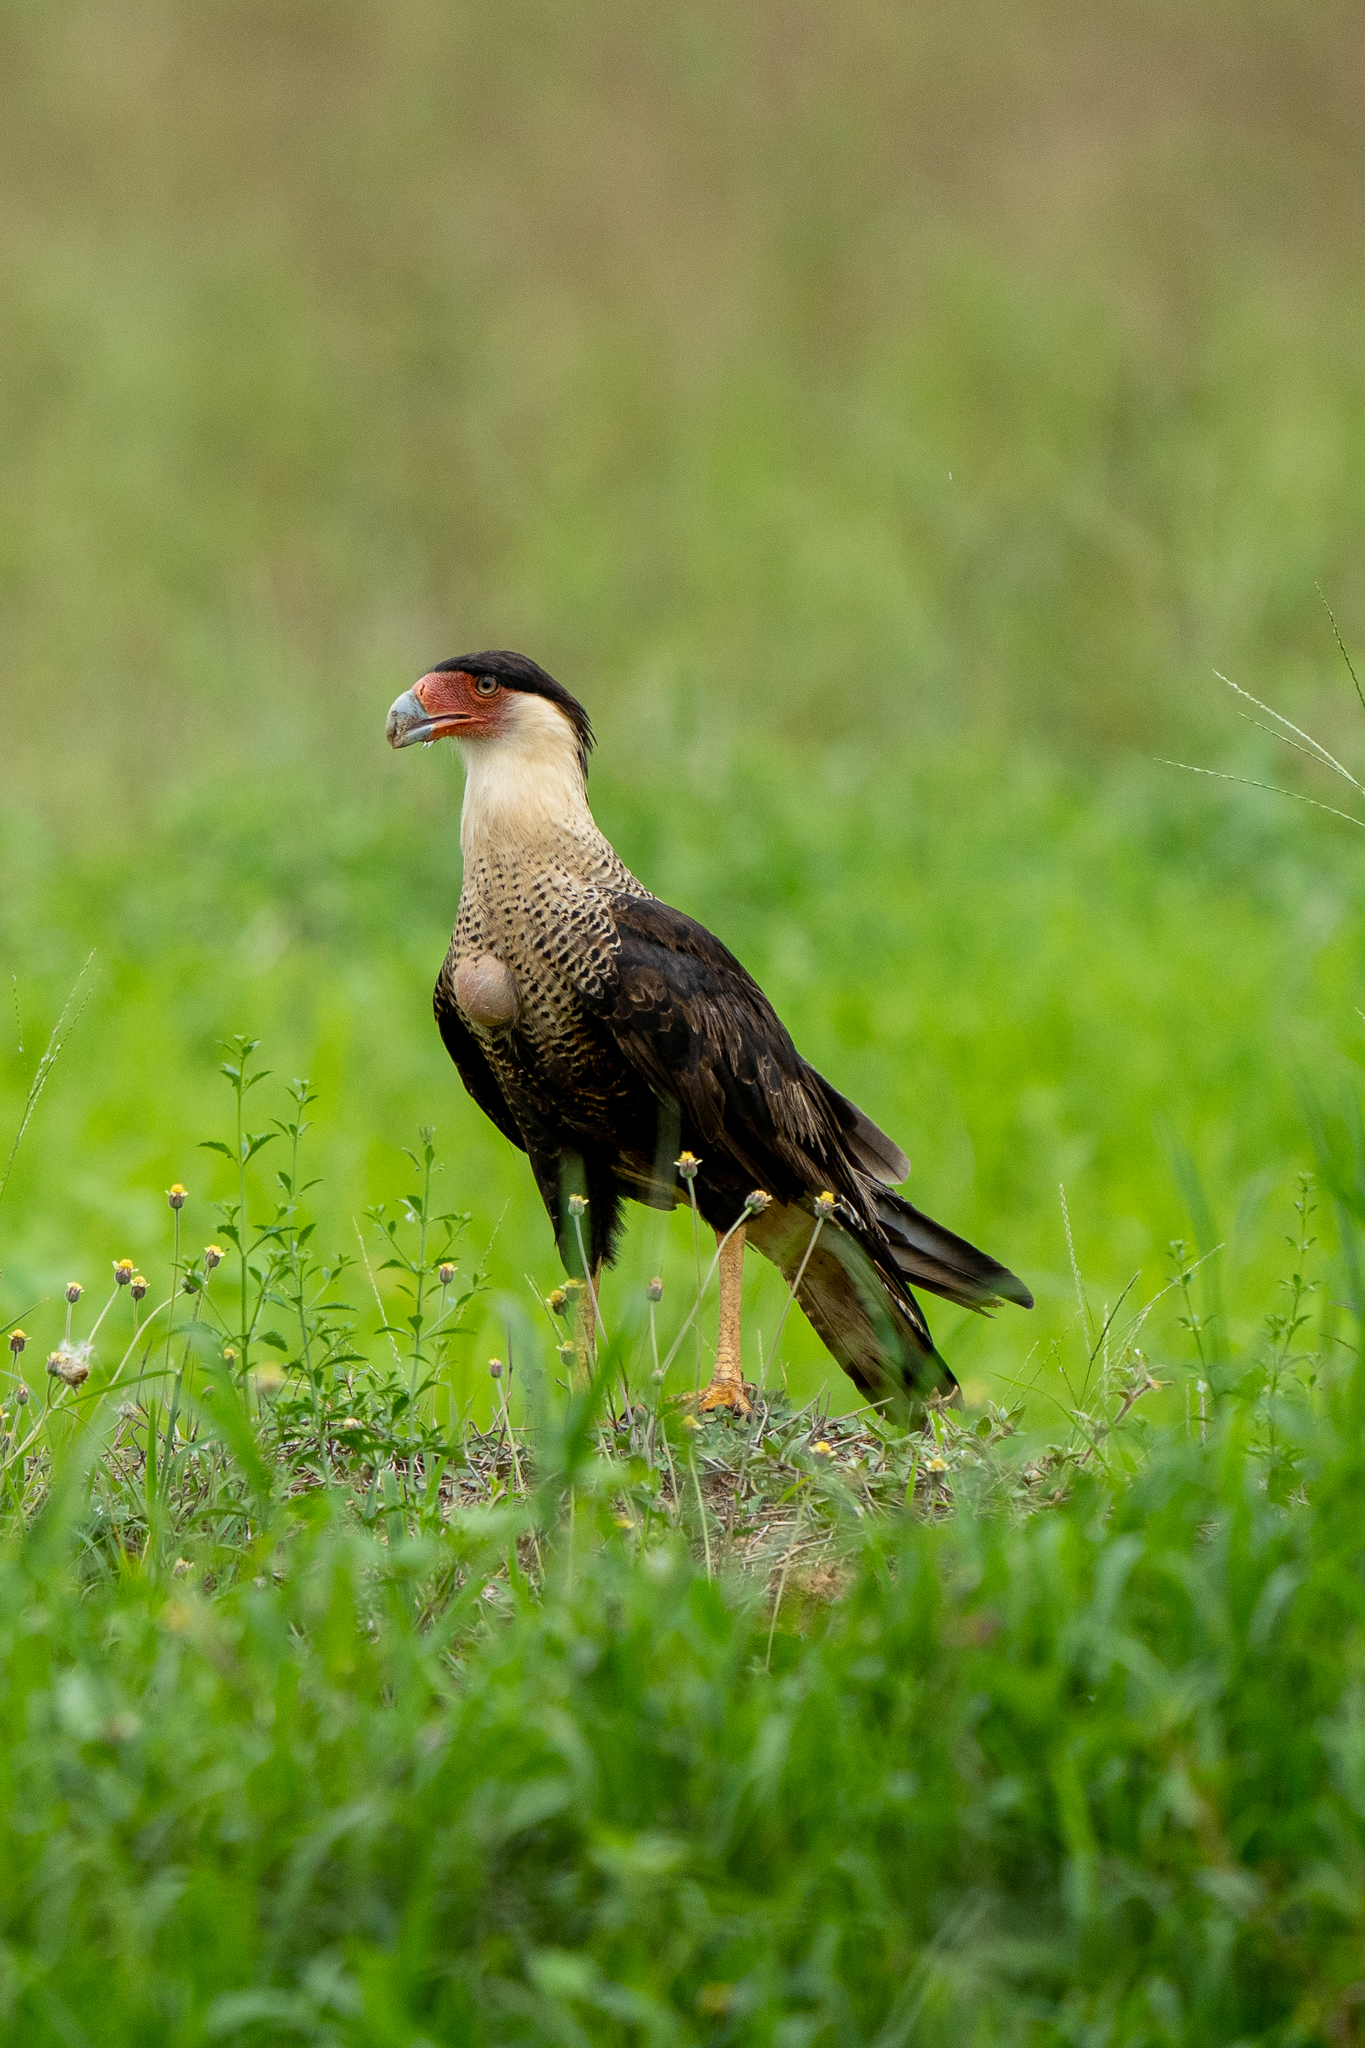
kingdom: Animalia
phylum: Chordata
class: Aves
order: Falconiformes
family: Falconidae
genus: Caracara
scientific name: Caracara plancus
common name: Southern caracara
